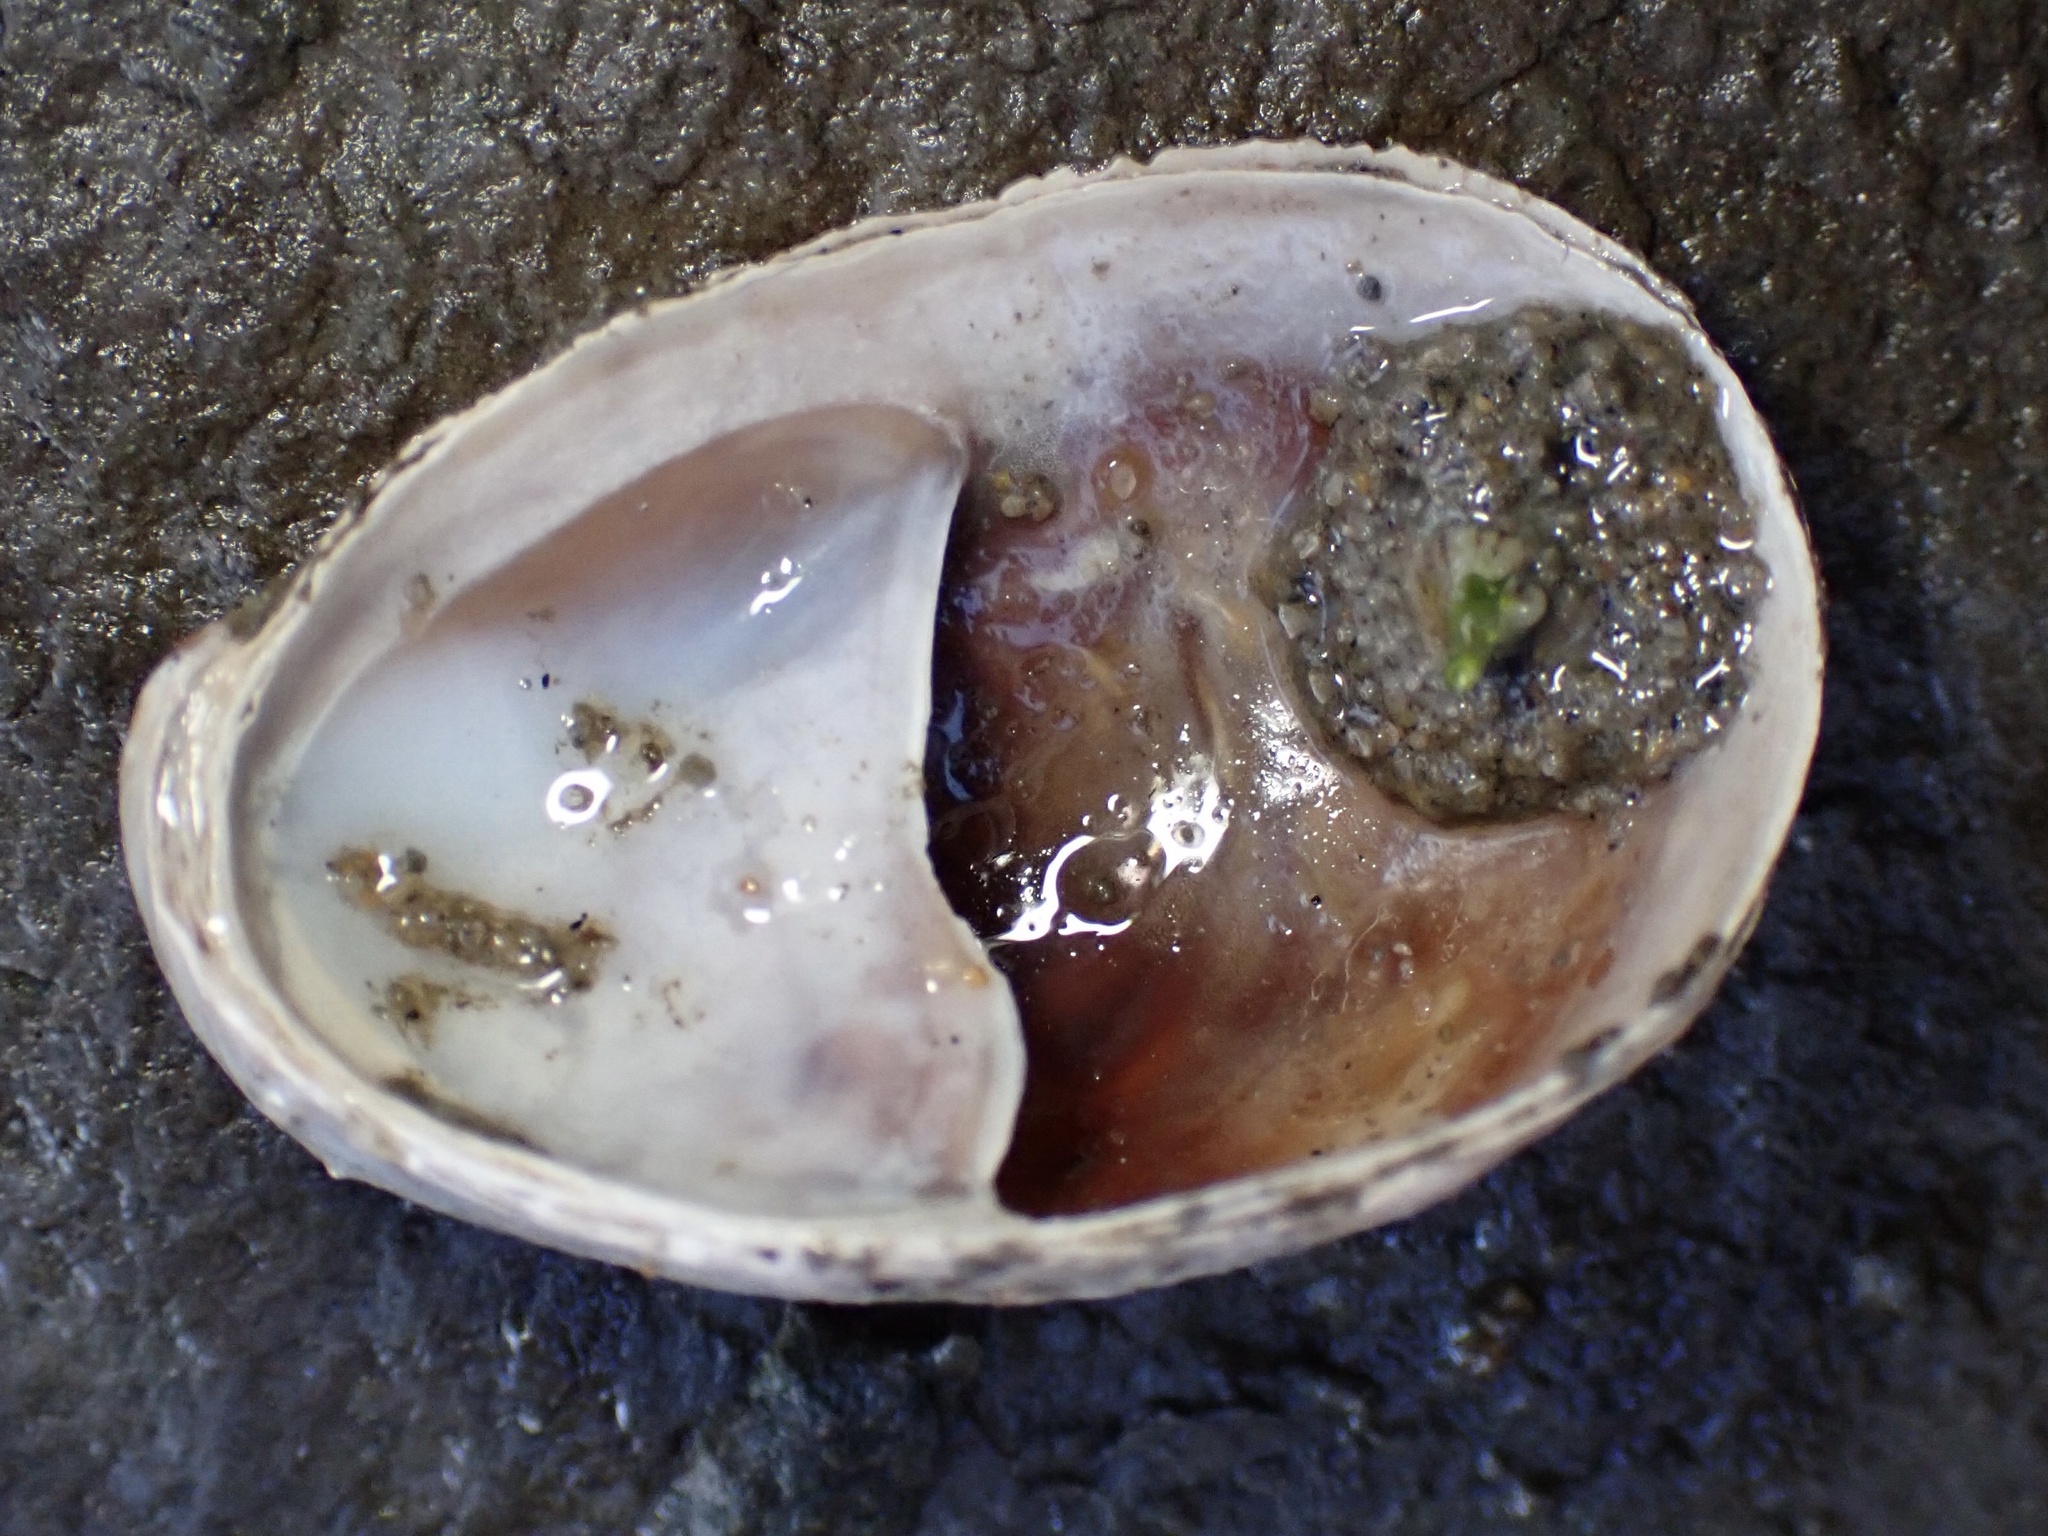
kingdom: Animalia
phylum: Mollusca
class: Gastropoda
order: Littorinimorpha
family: Calyptraeidae
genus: Crepidula
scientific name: Crepidula onyx
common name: Onyx slippersnail
